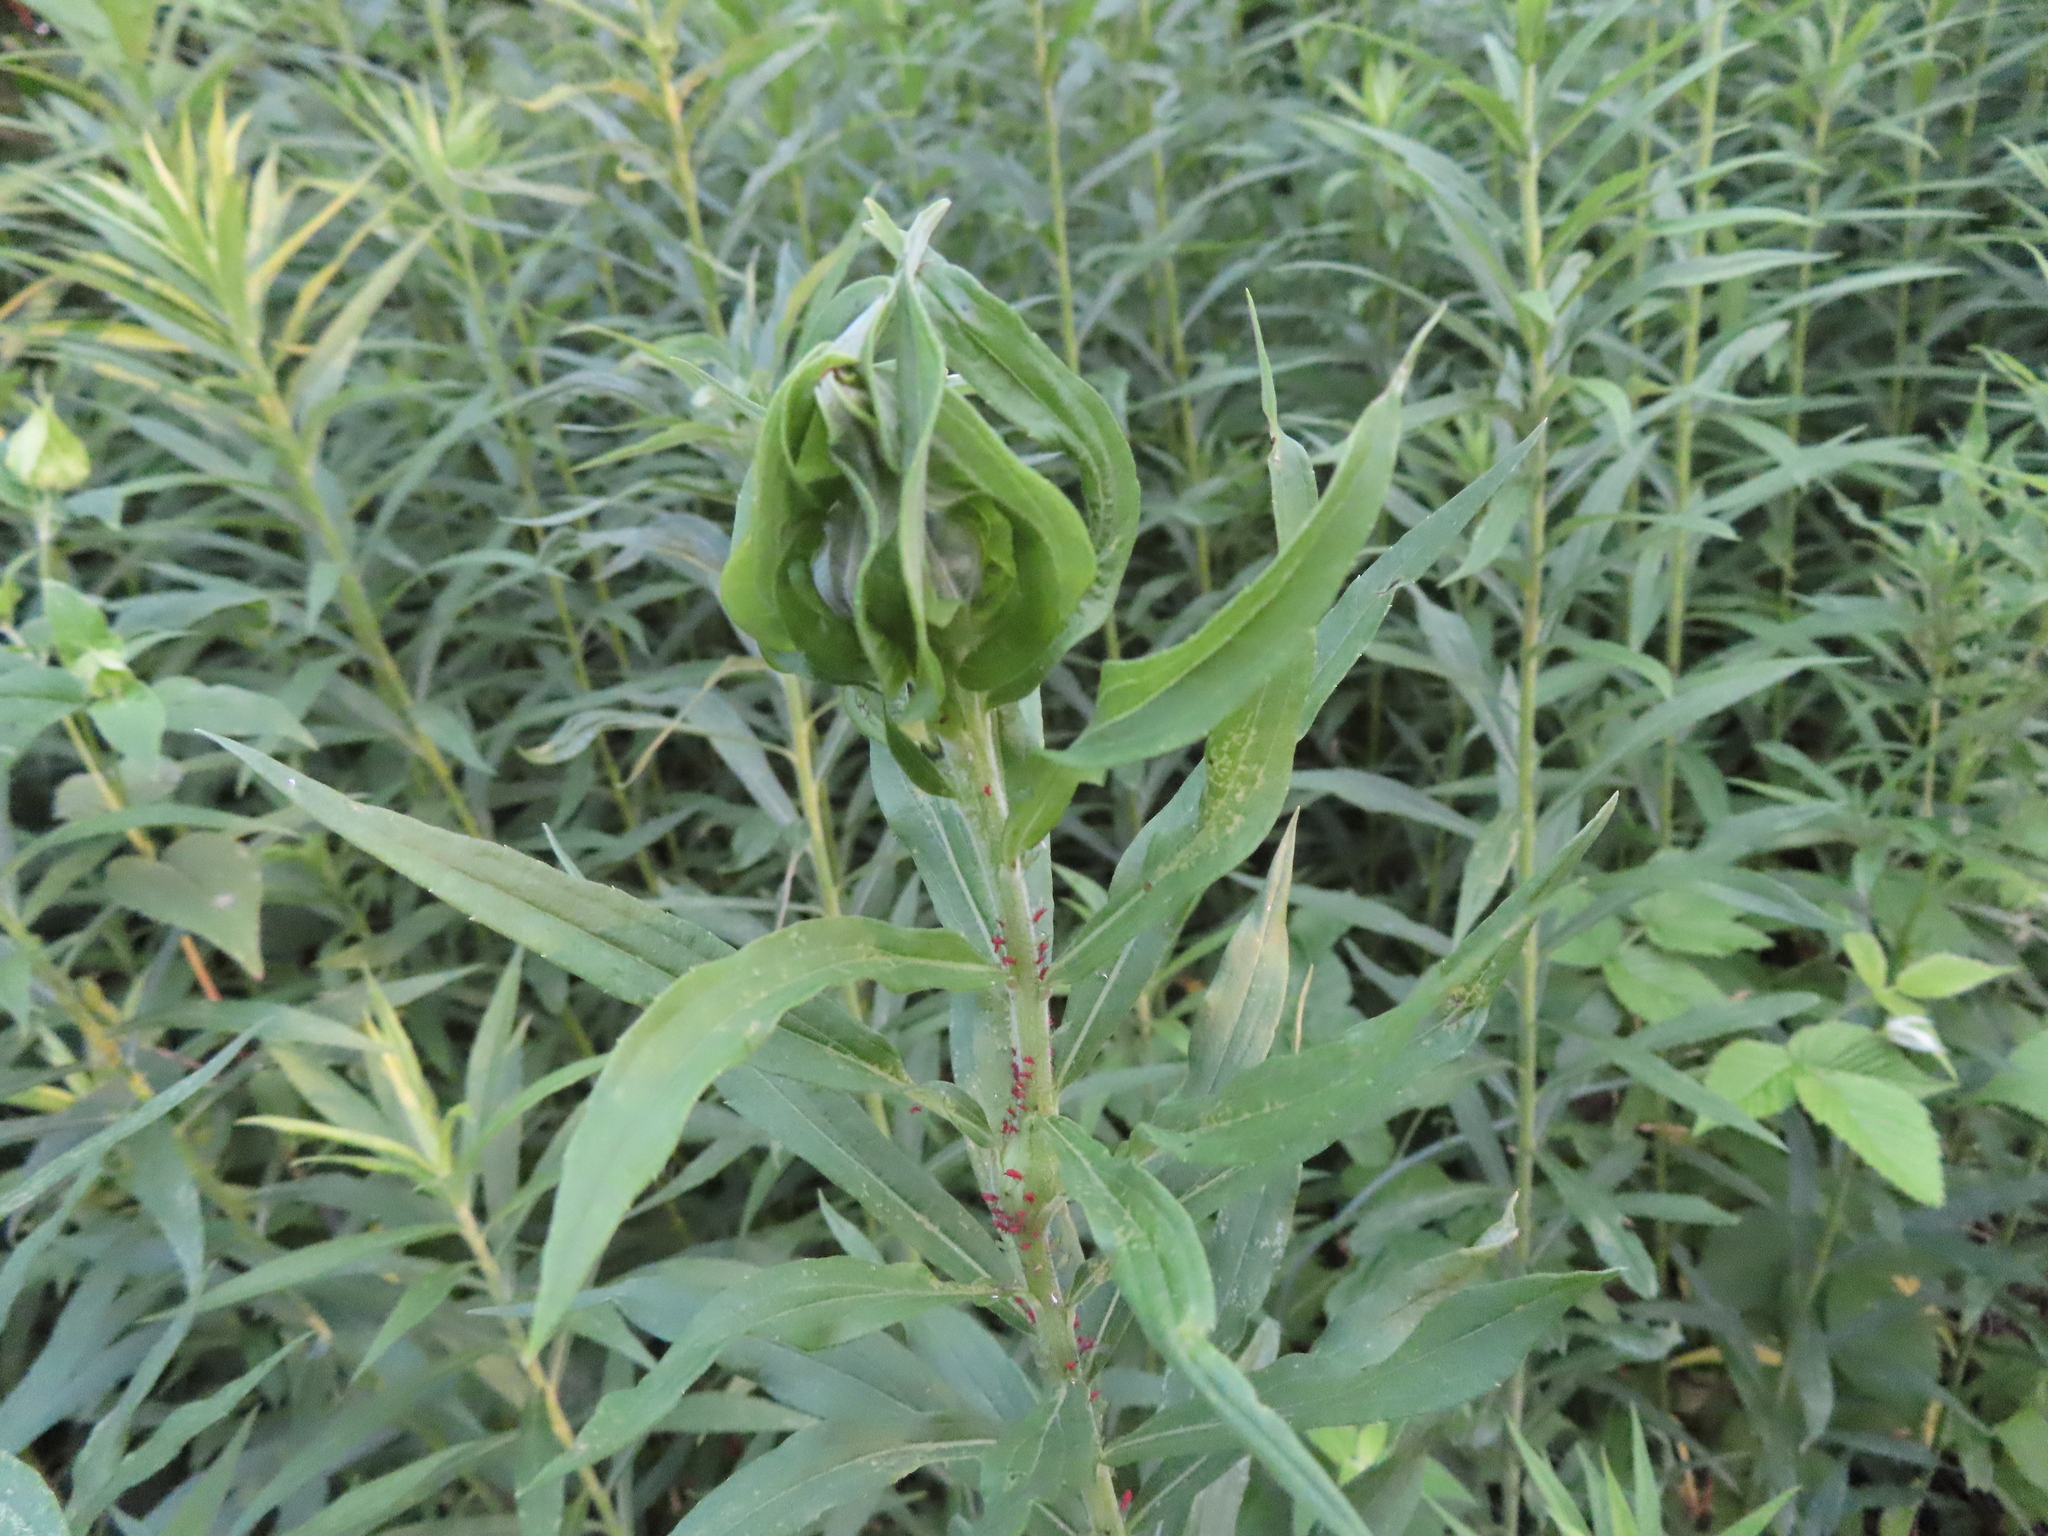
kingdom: Animalia
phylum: Arthropoda
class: Insecta
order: Diptera
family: Cecidomyiidae
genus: Asphondylia
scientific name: Asphondylia solidaginis
